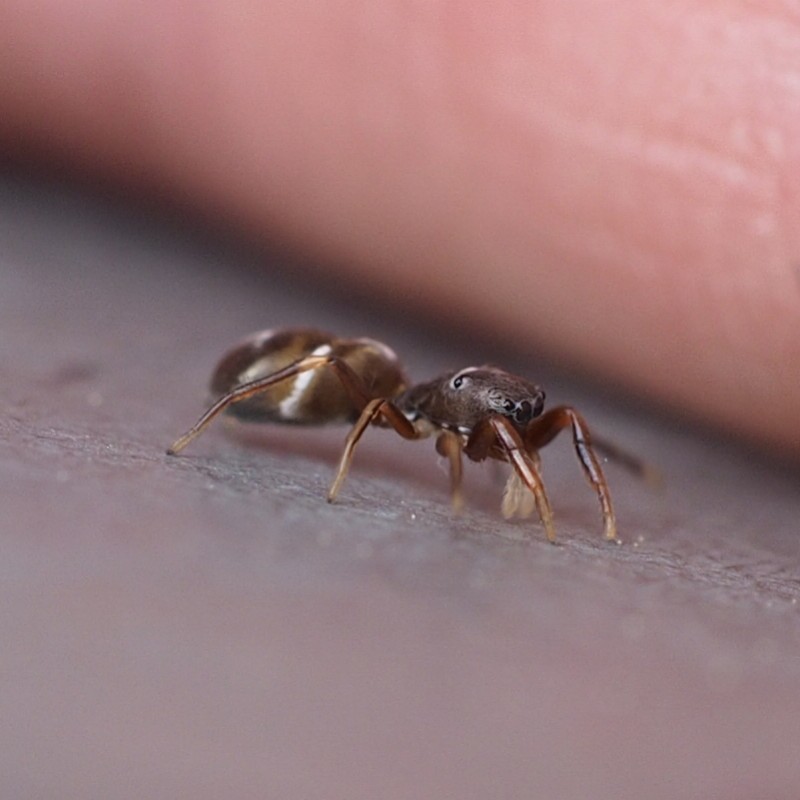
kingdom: Animalia
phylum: Arthropoda
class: Arachnida
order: Araneae
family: Salticidae
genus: Synageles
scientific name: Synageles venator
